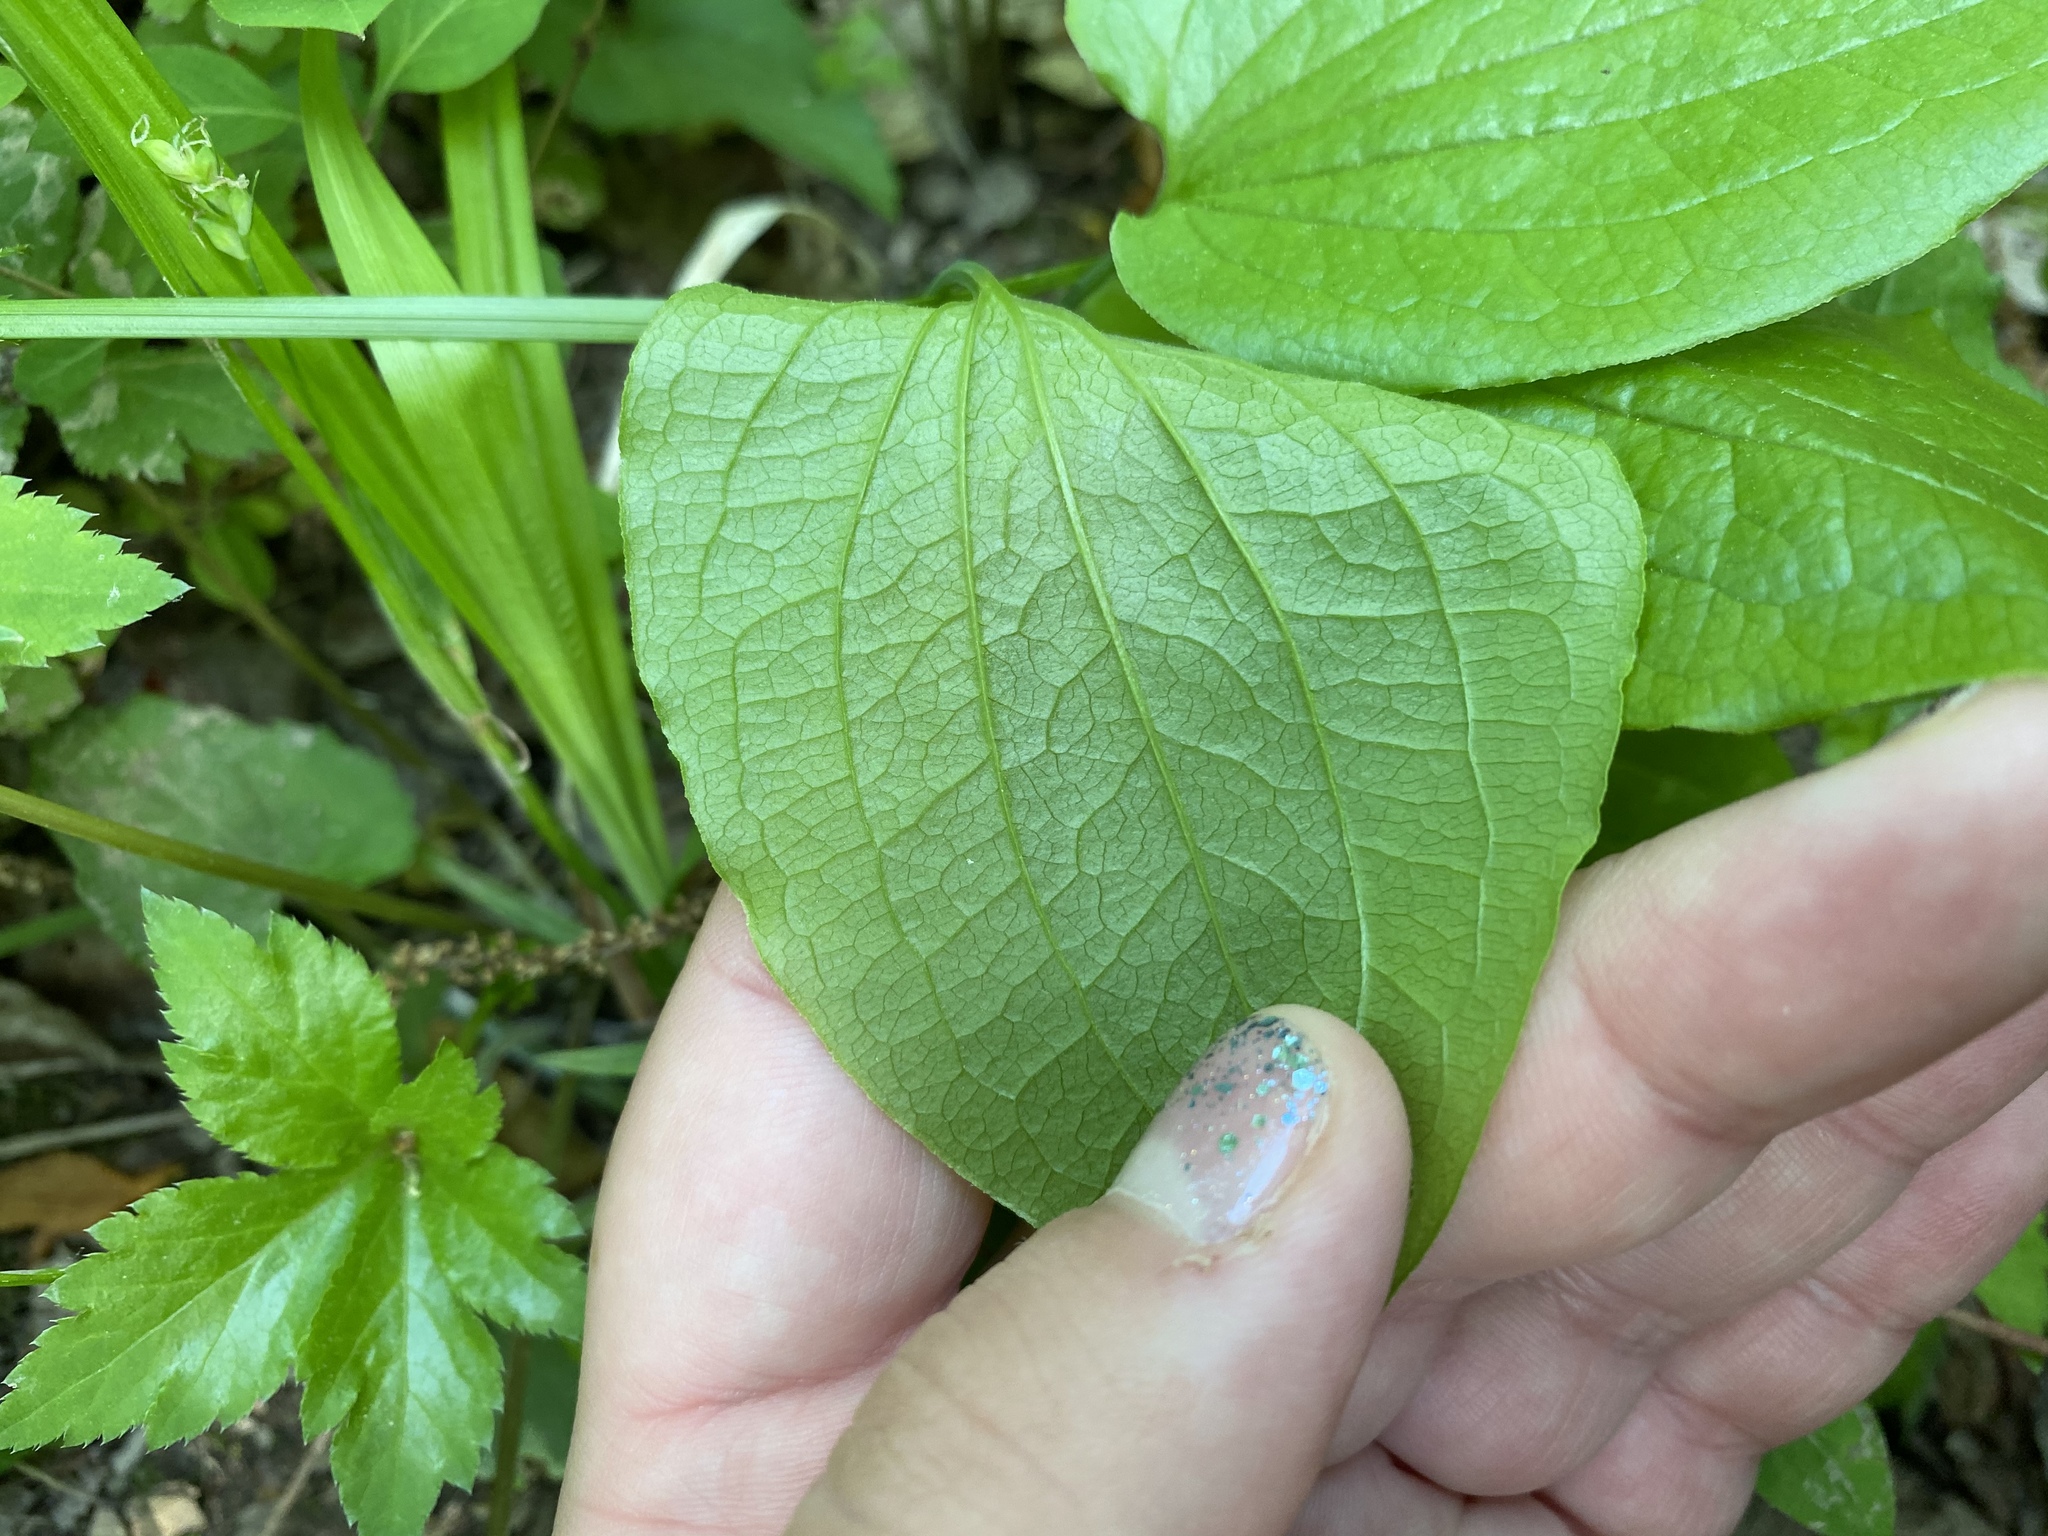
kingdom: Plantae
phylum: Tracheophyta
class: Liliopsida
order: Liliales
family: Smilacaceae
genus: Smilax
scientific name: Smilax pulverulenta
